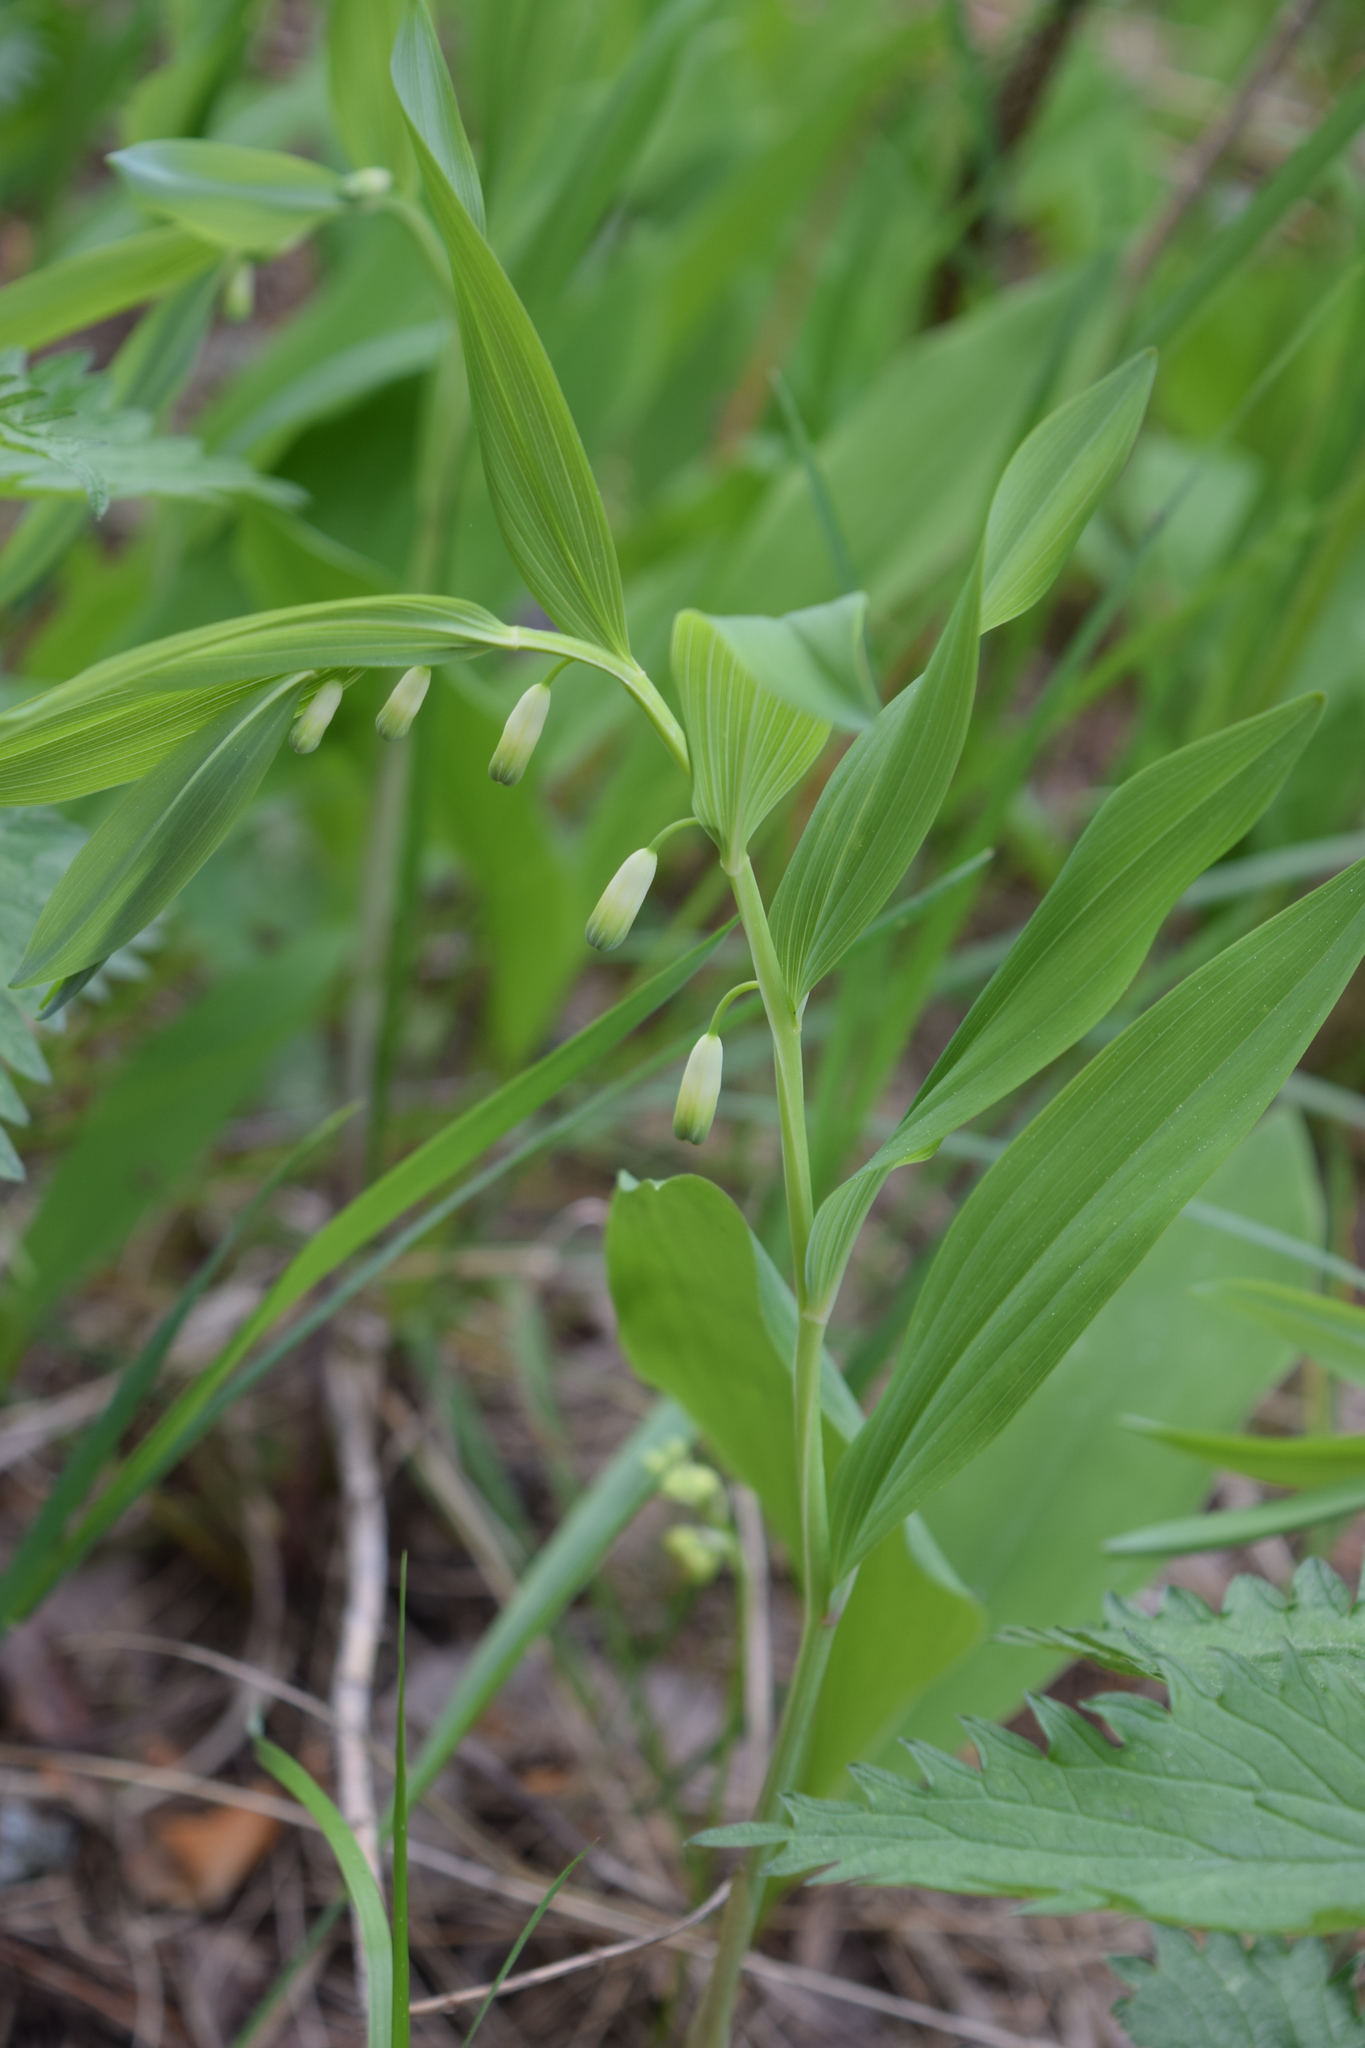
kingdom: Plantae
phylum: Tracheophyta
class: Liliopsida
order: Asparagales
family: Asparagaceae
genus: Polygonatum
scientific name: Polygonatum odoratum
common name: Angular solomon's-seal
